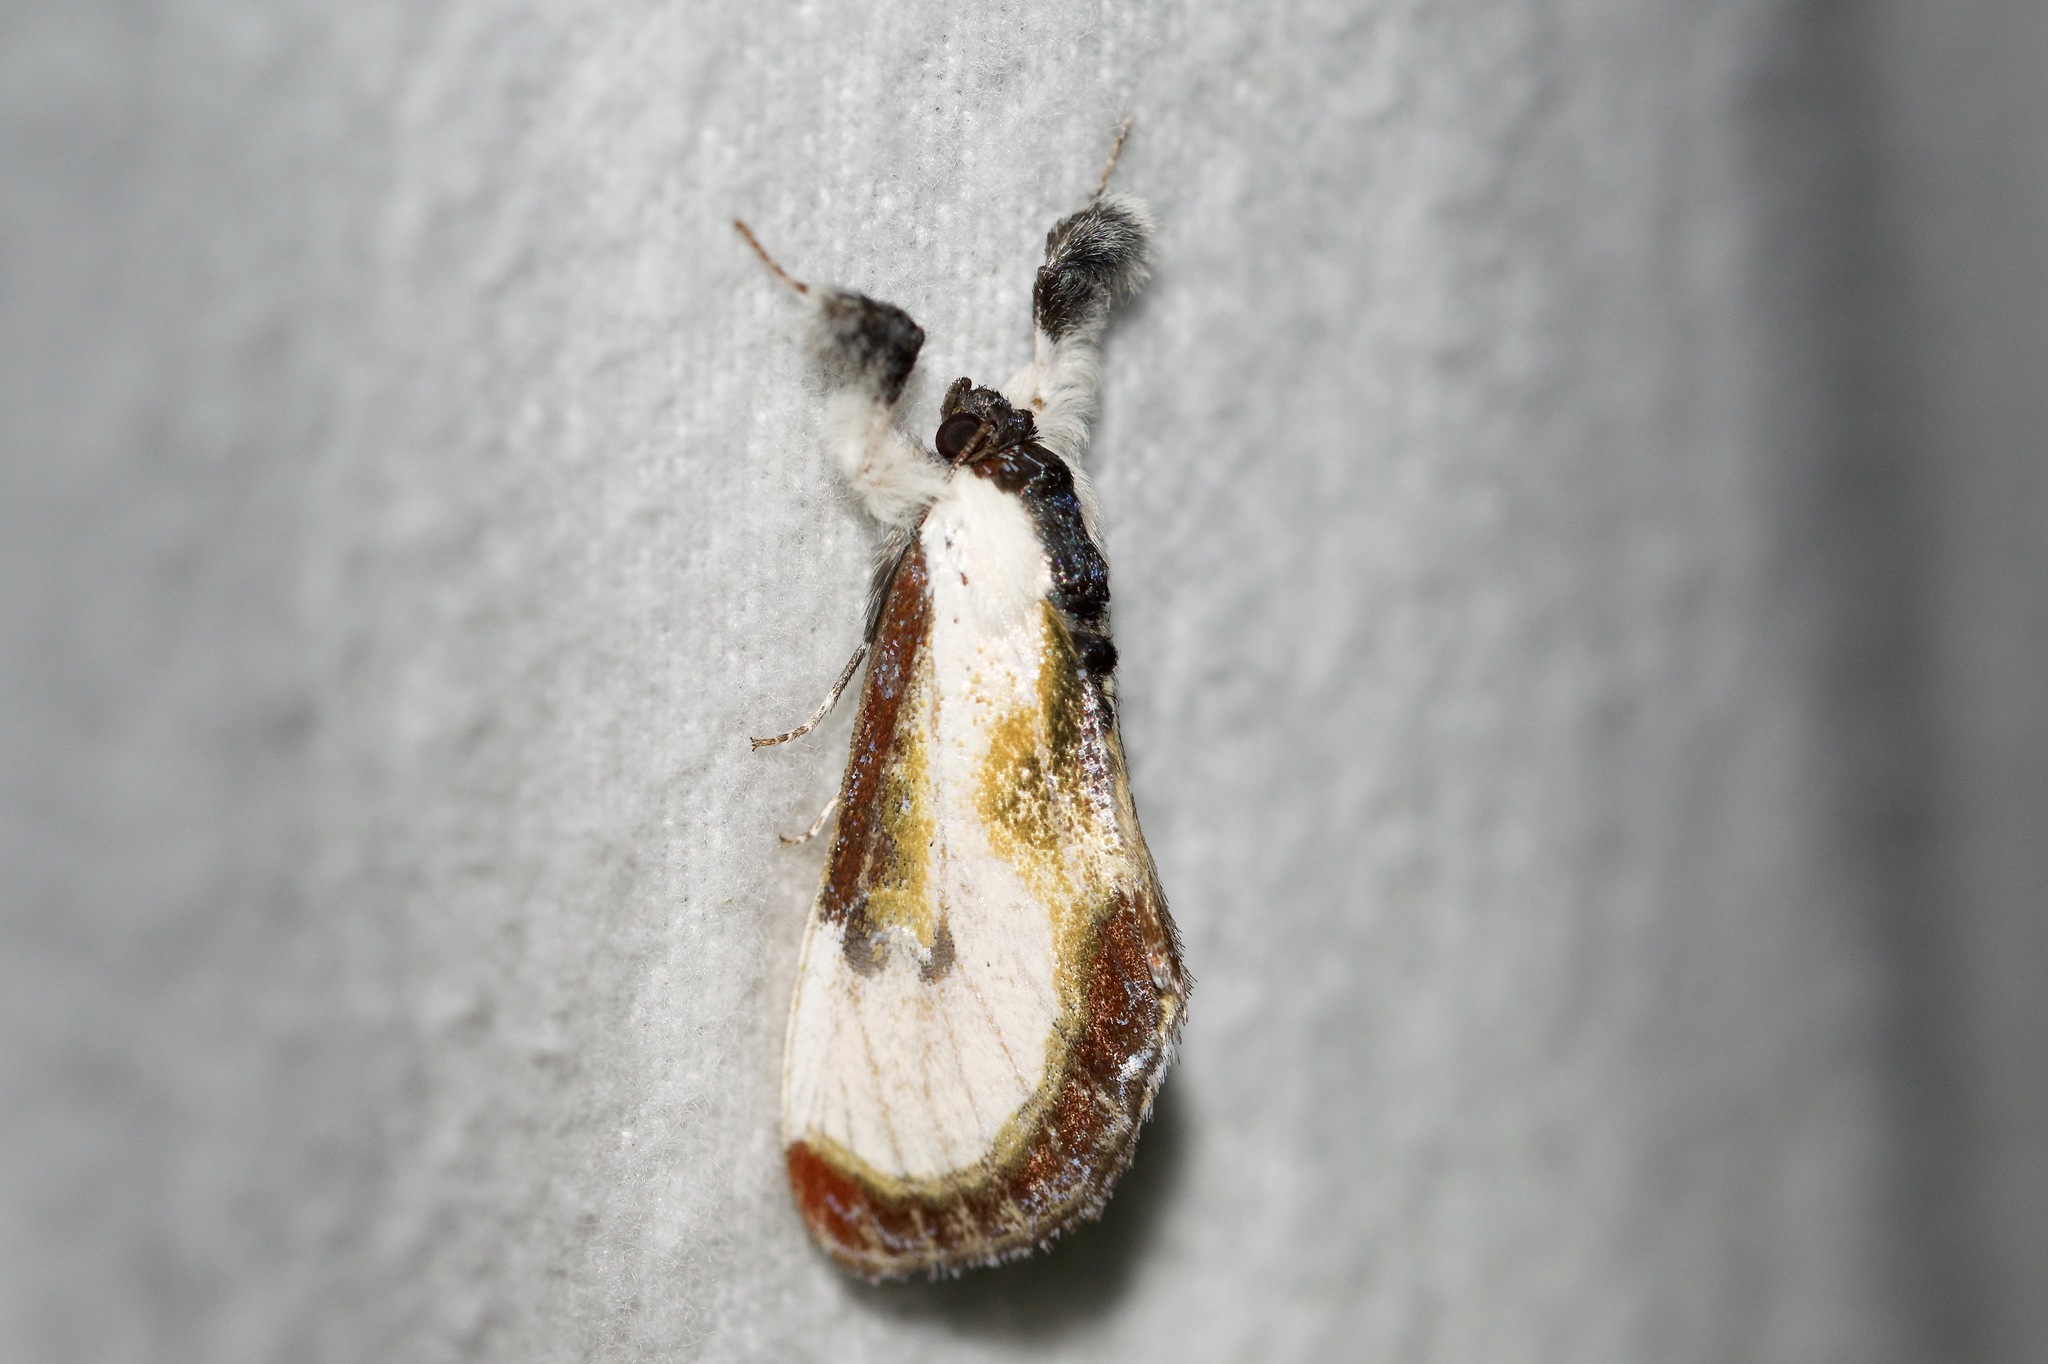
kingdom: Animalia
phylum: Arthropoda
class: Insecta
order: Lepidoptera
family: Noctuidae
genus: Eudryas
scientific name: Eudryas grata
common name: Beautiful wood-nymph
